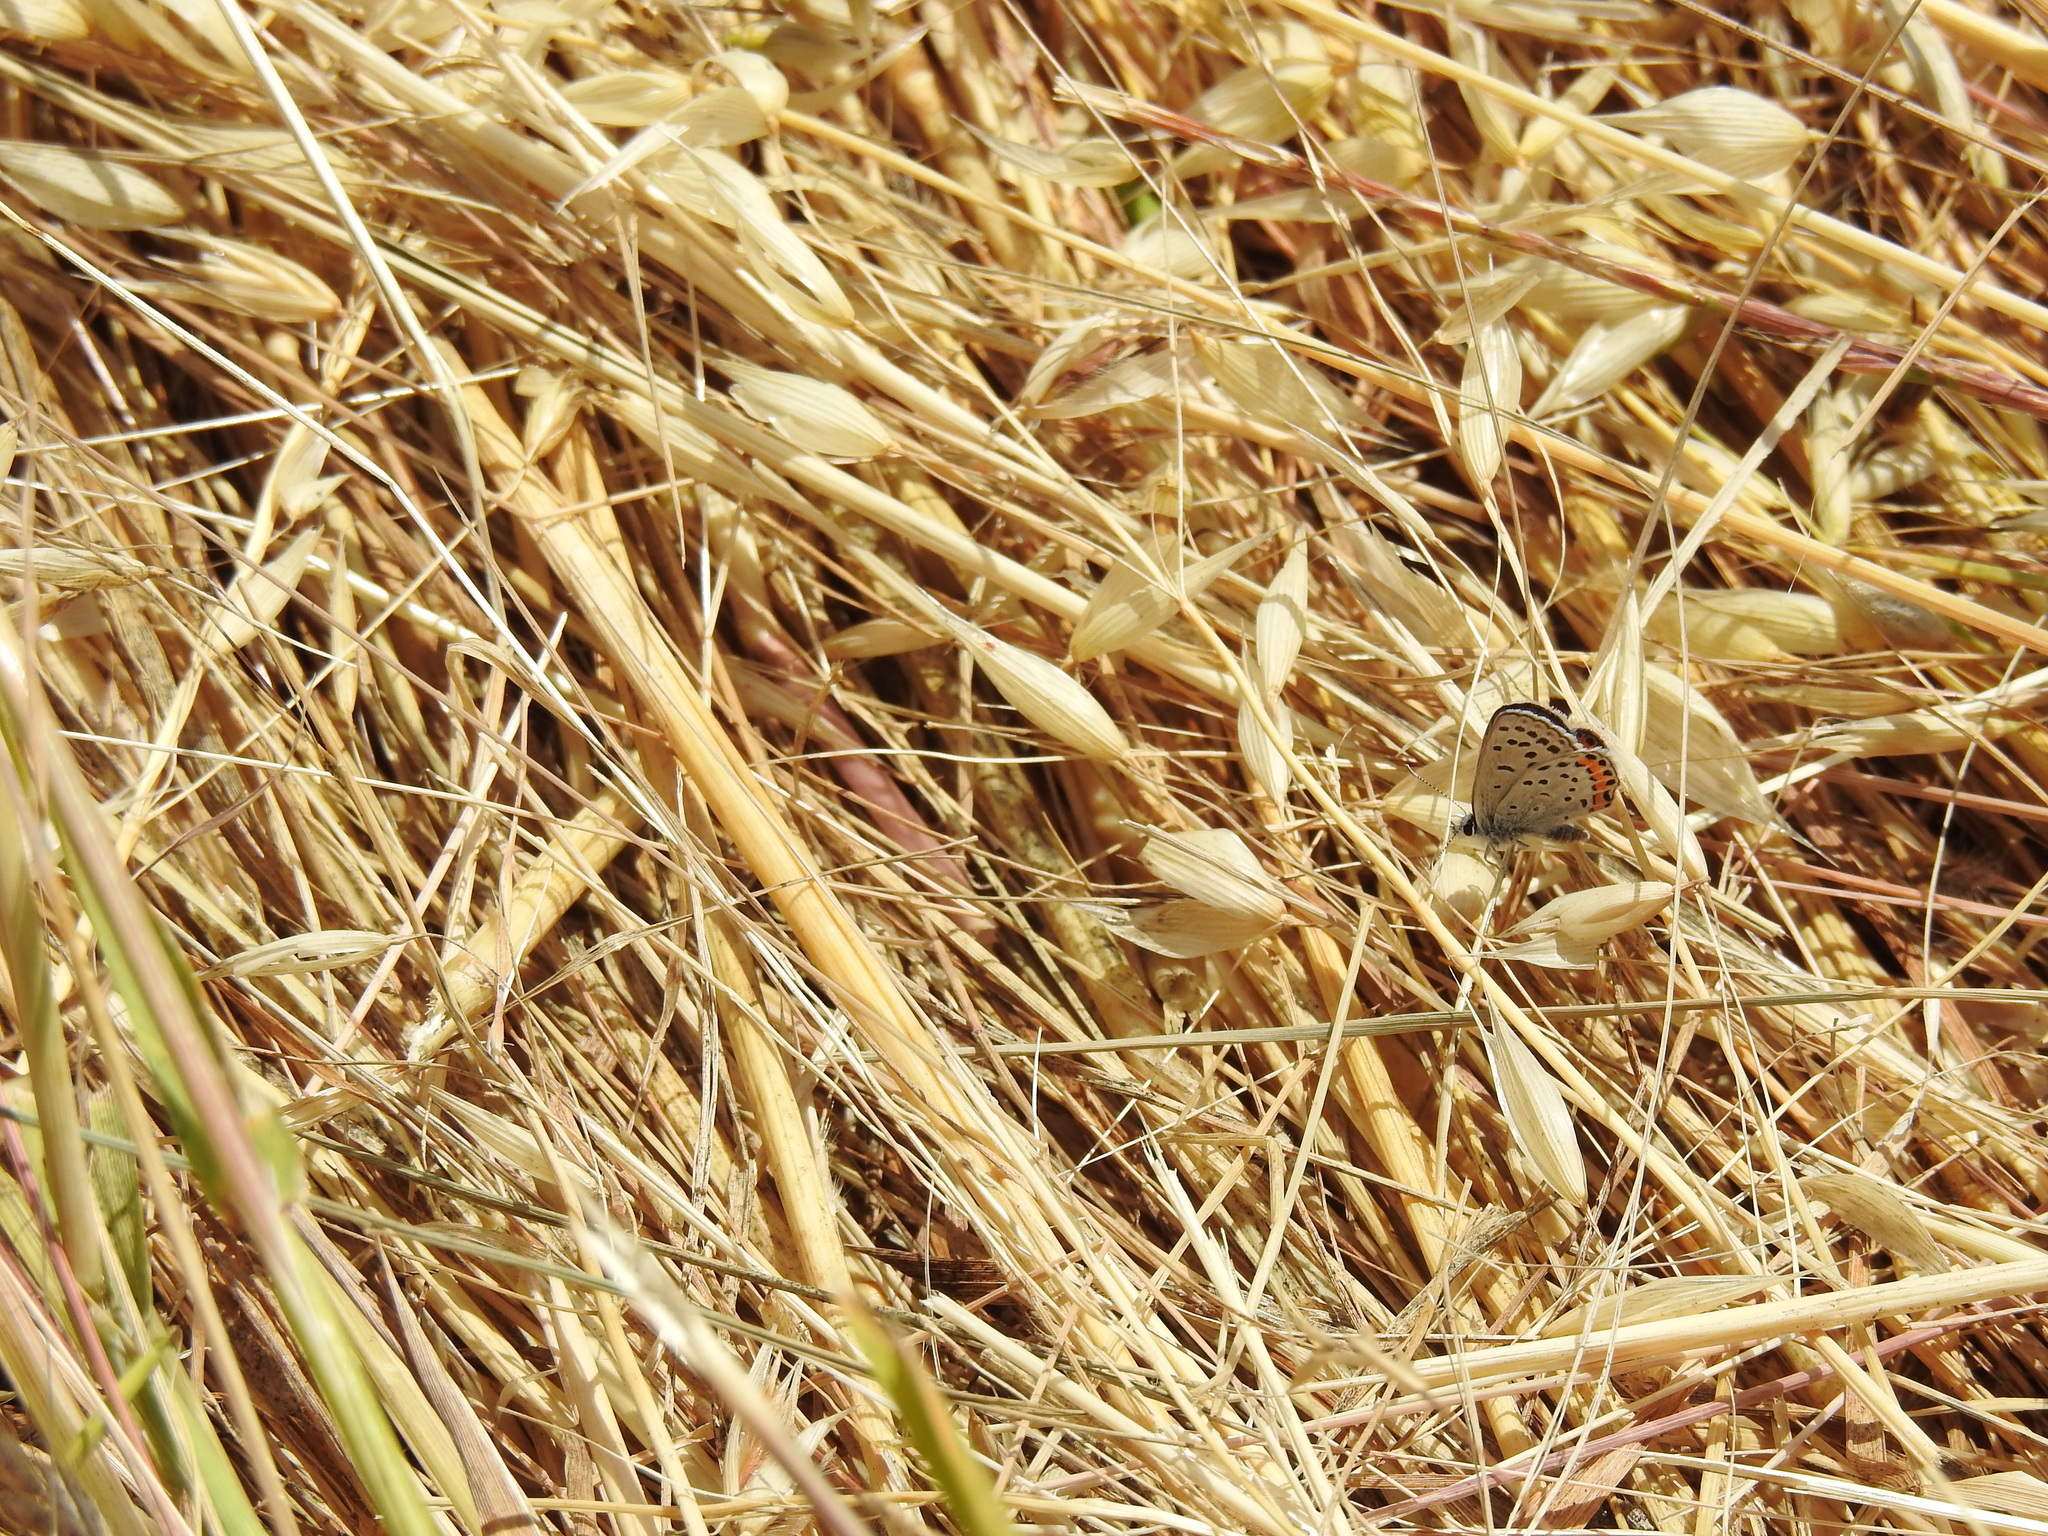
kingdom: Animalia
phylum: Arthropoda
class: Insecta
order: Lepidoptera
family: Lycaenidae
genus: Icaricia
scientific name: Icaricia acmon
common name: Acmon blue
